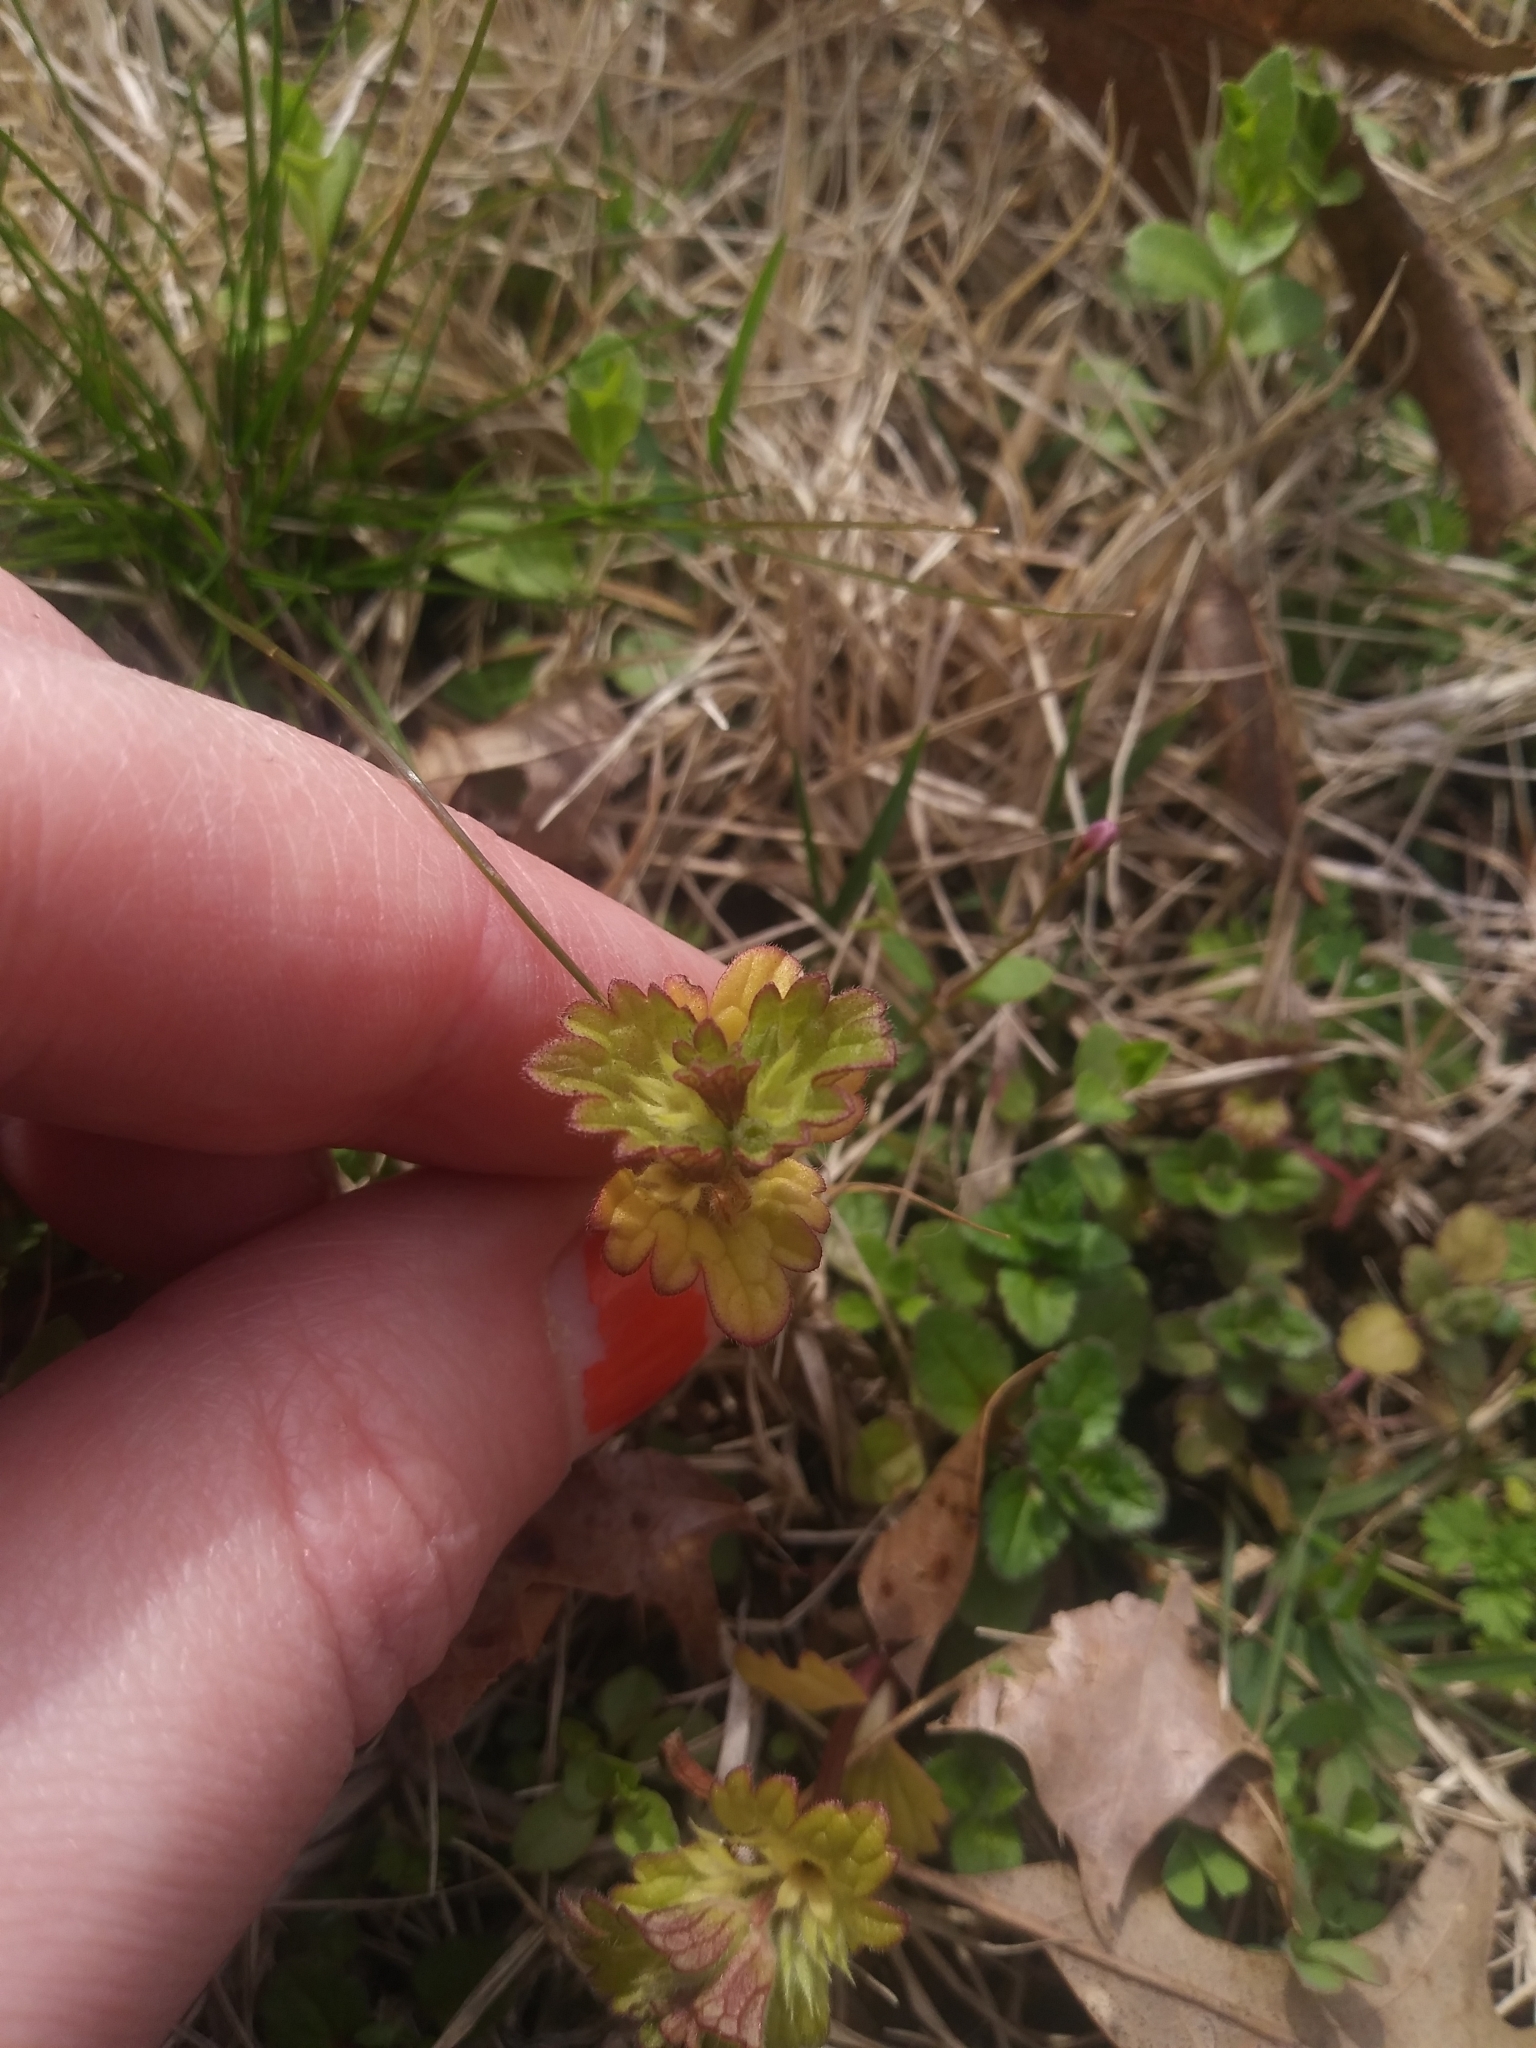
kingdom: Plantae
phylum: Tracheophyta
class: Magnoliopsida
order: Lamiales
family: Lamiaceae
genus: Lamium
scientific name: Lamium amplexicaule
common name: Henbit dead-nettle
